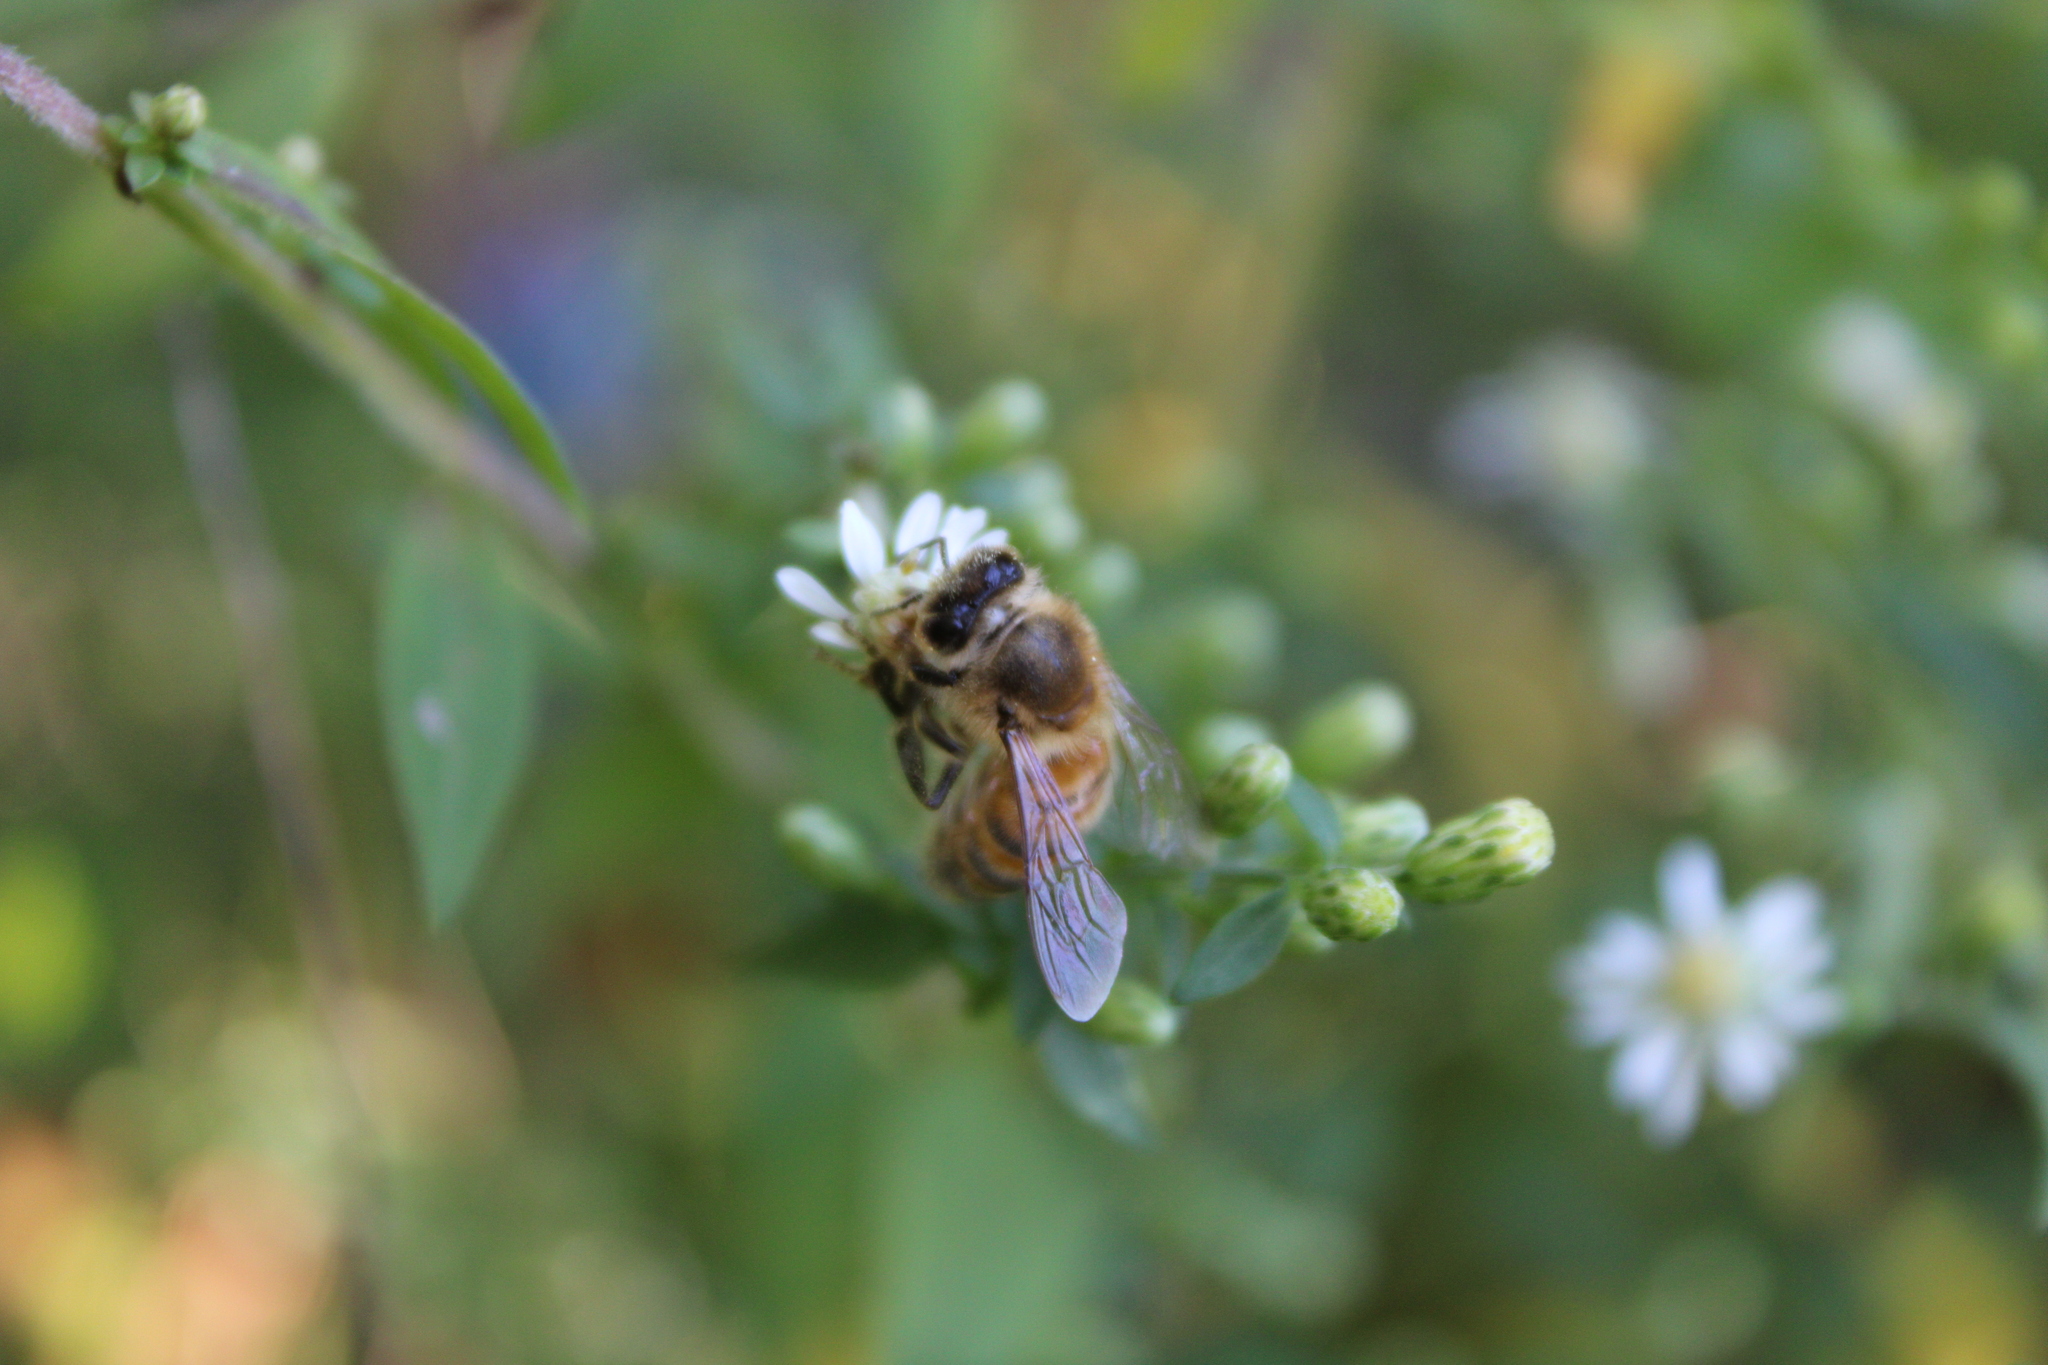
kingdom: Animalia
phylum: Arthropoda
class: Insecta
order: Hymenoptera
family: Apidae
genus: Apis
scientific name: Apis mellifera
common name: Honey bee
